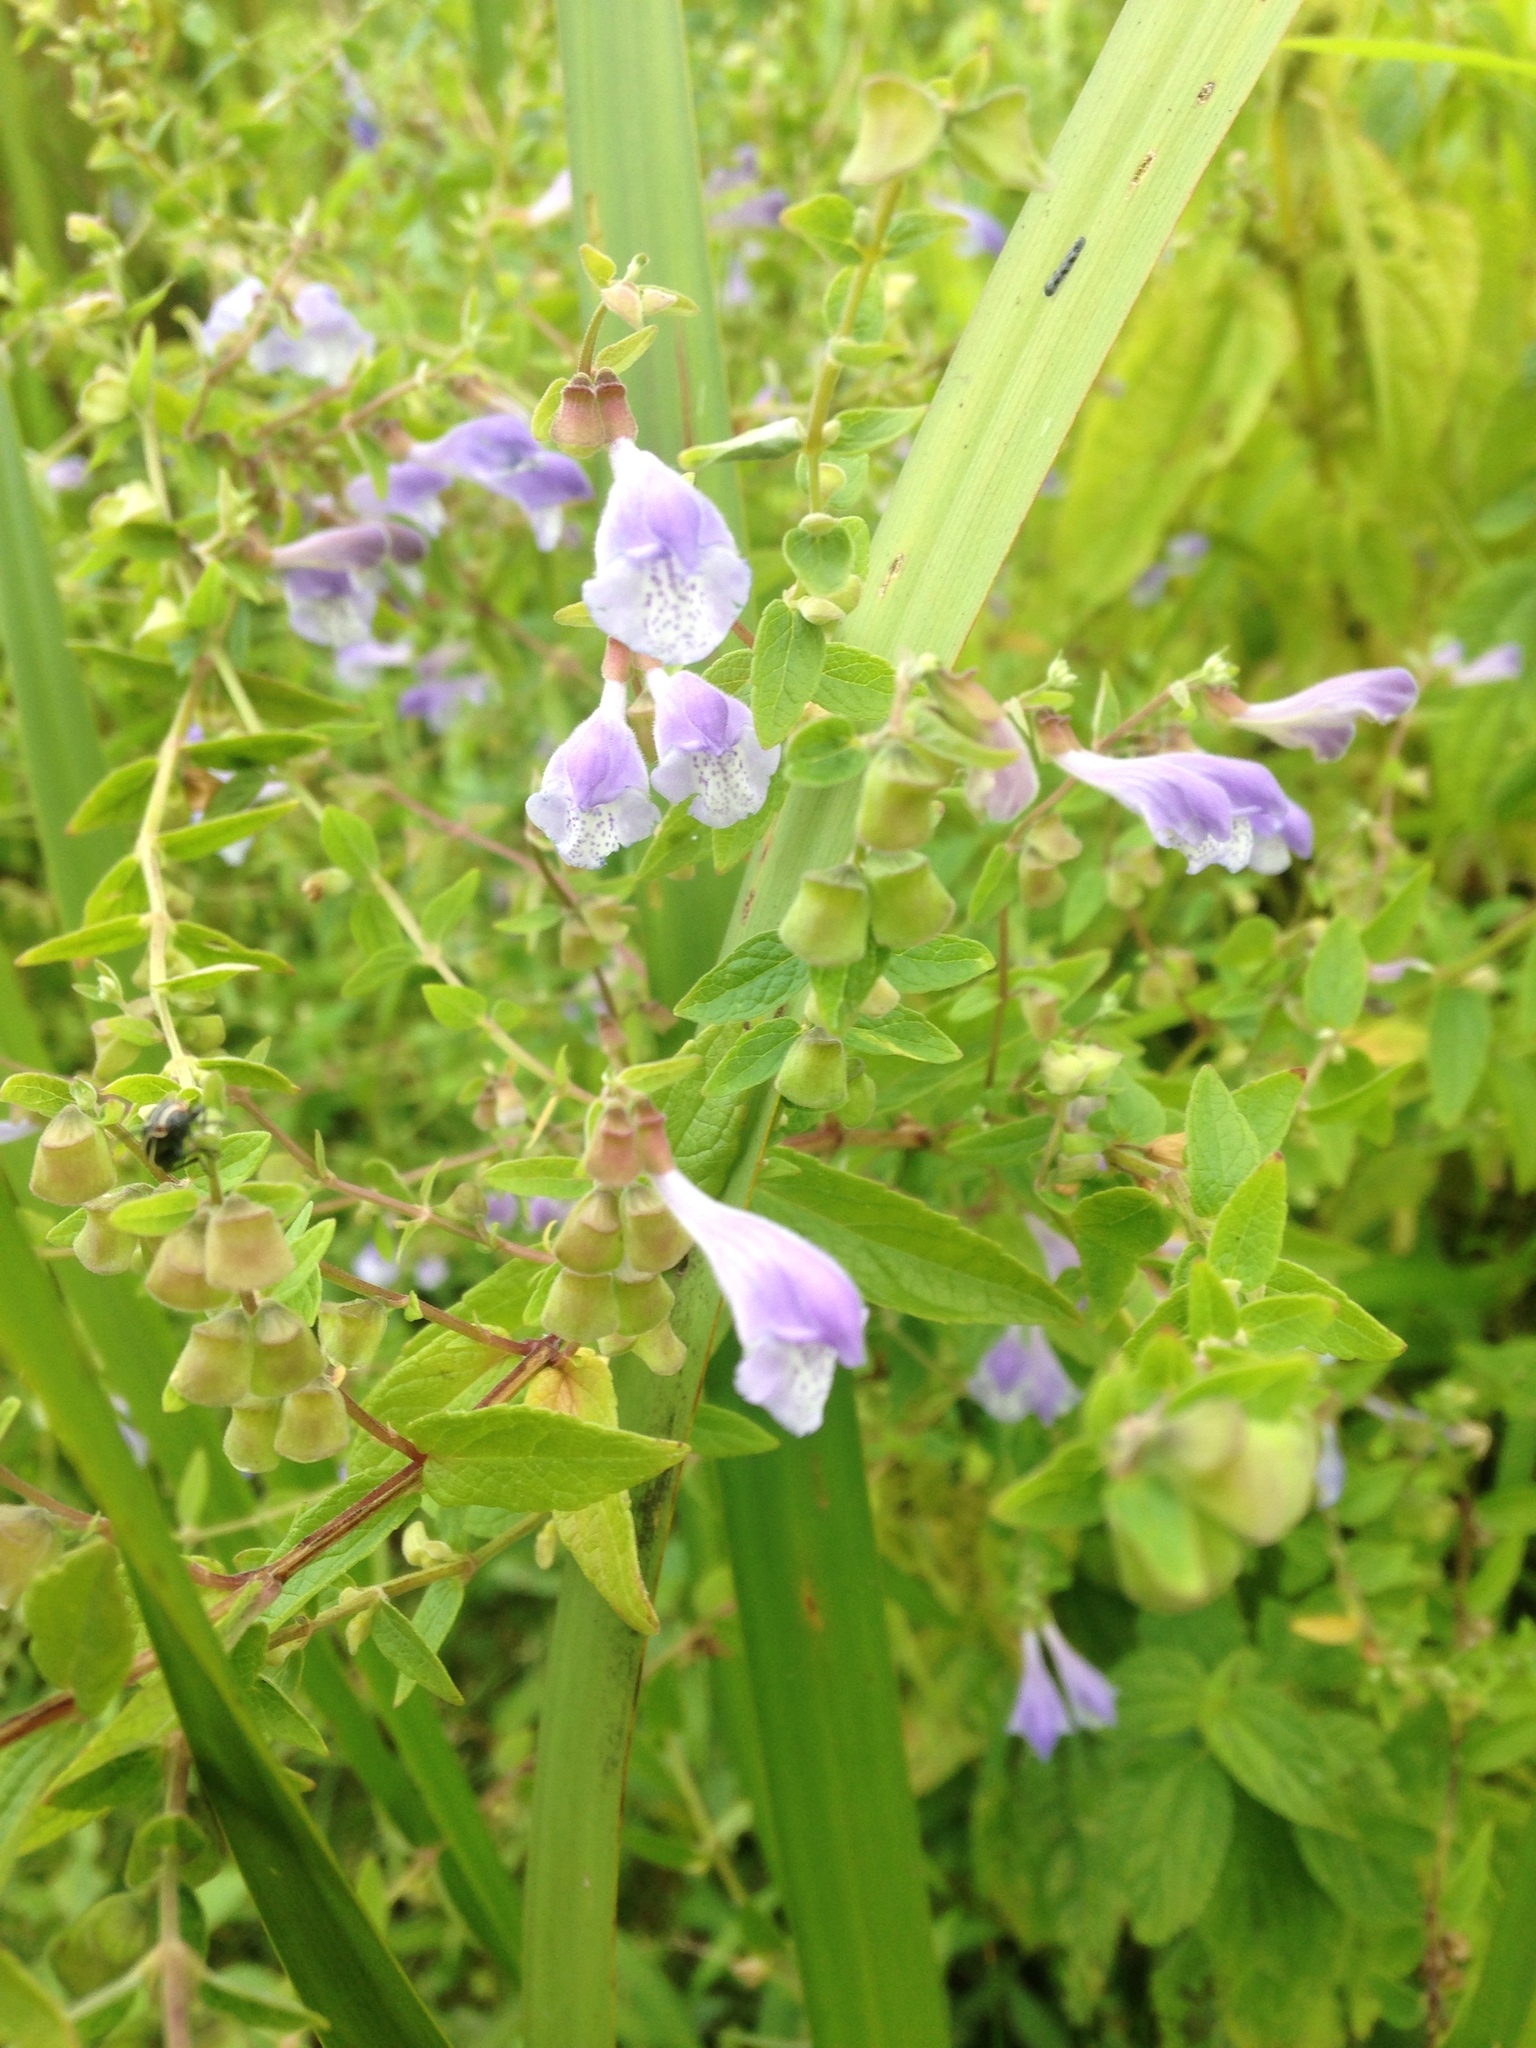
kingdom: Plantae
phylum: Tracheophyta
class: Magnoliopsida
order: Lamiales
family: Lamiaceae
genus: Scutellaria
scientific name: Scutellaria galericulata
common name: Skullcap
